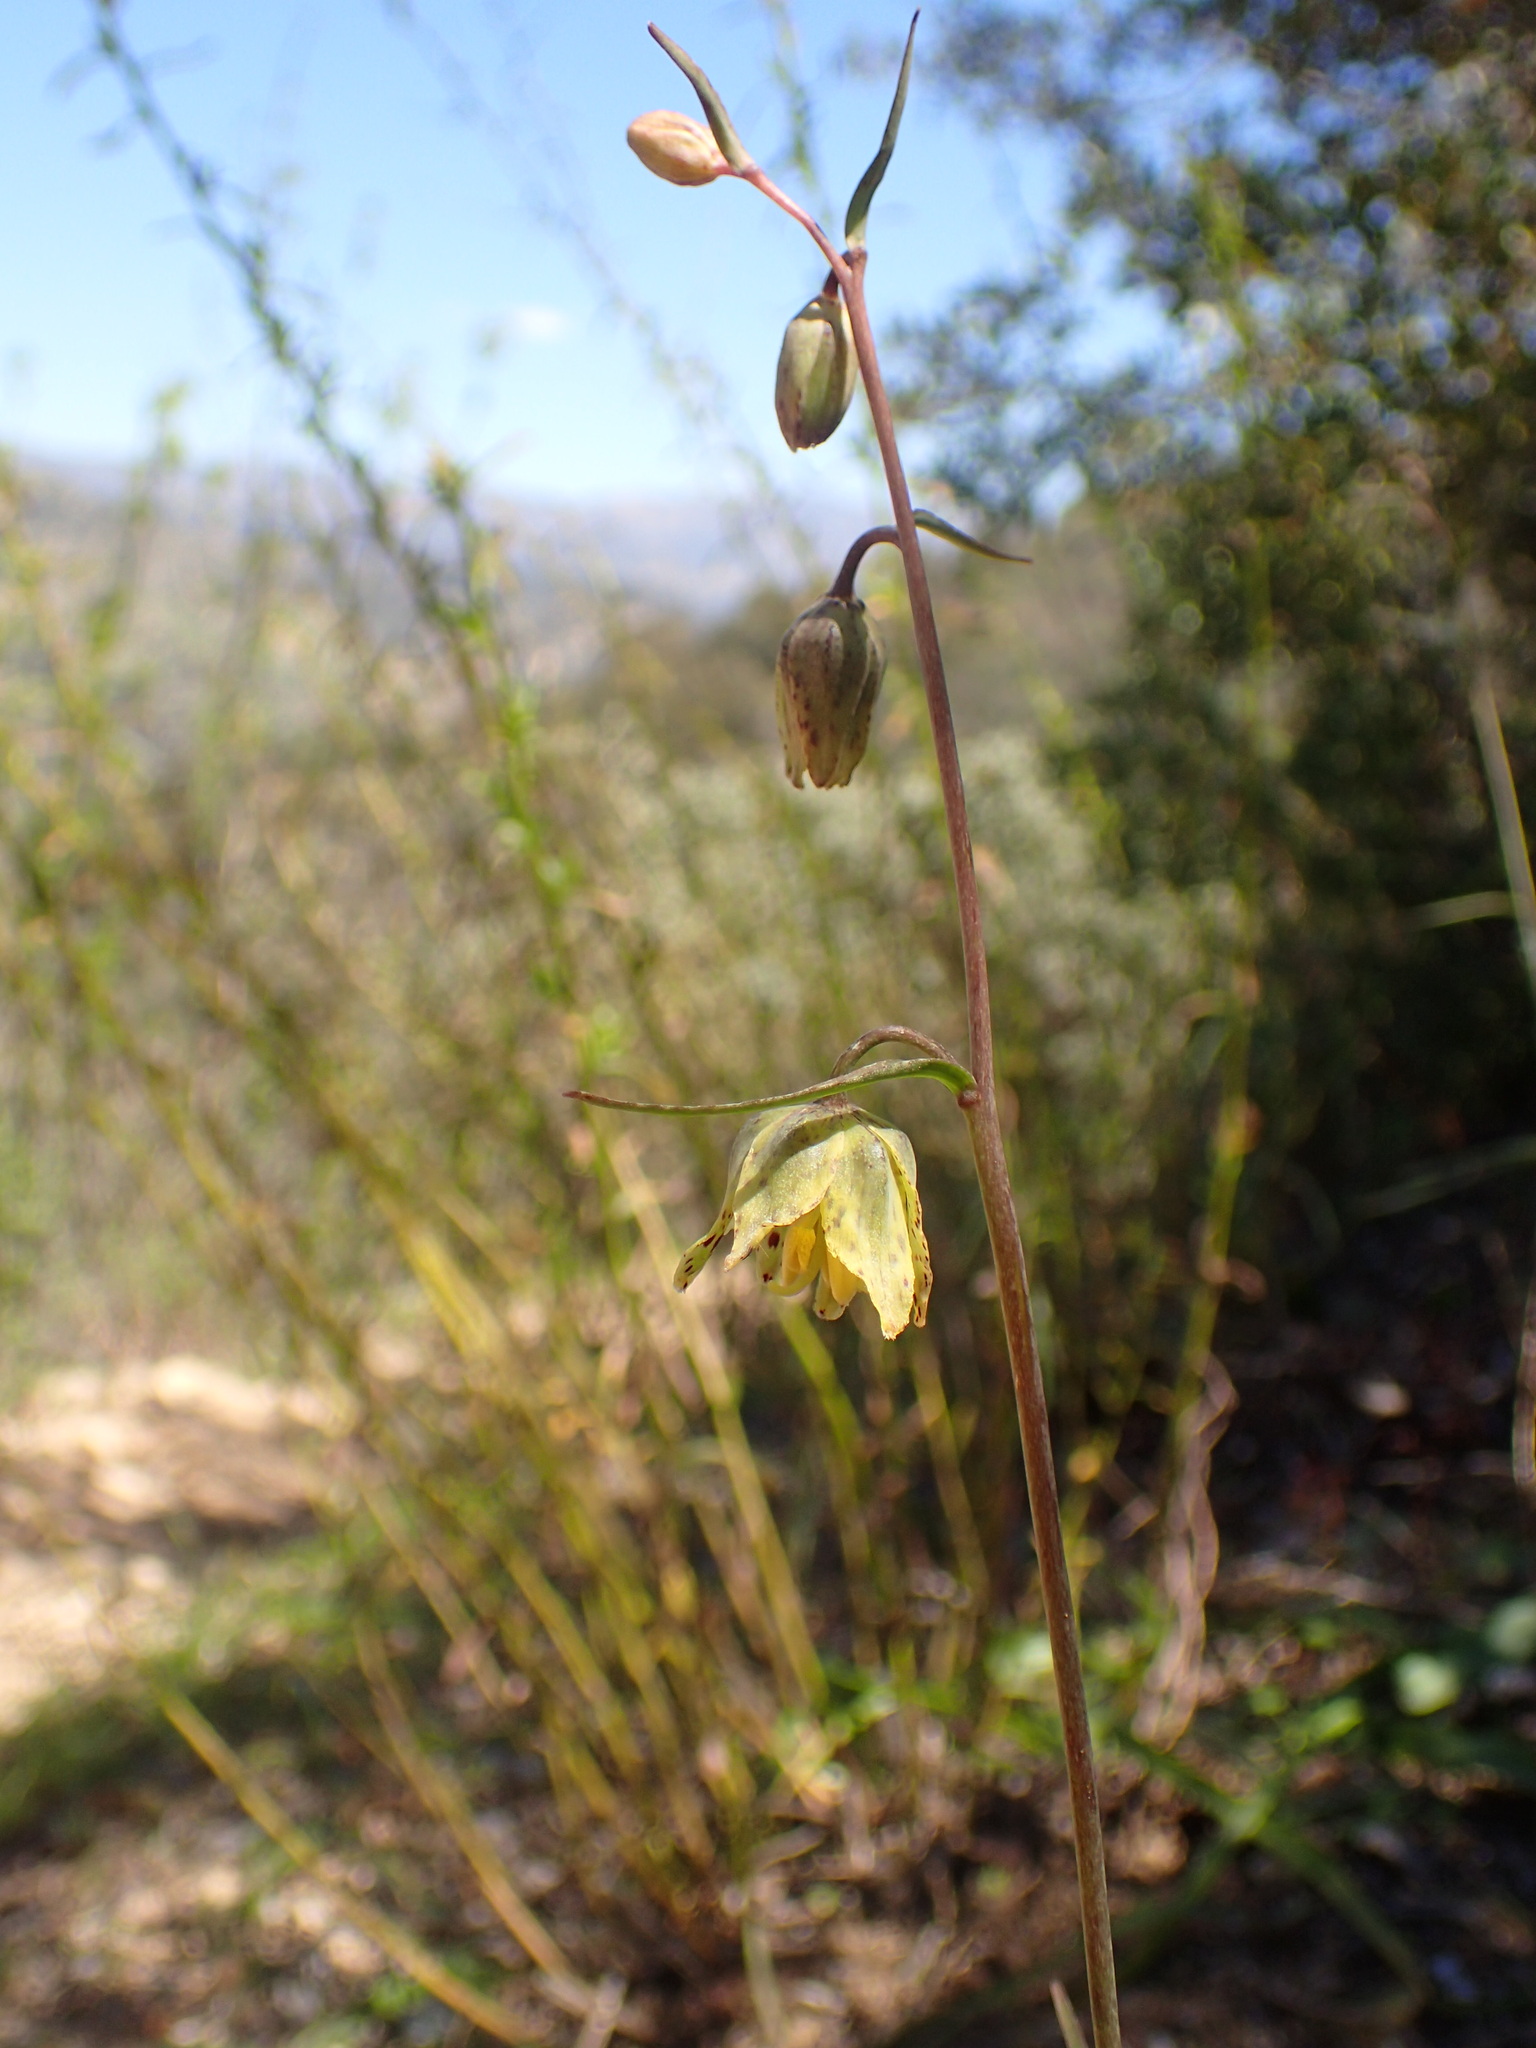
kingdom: Plantae
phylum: Tracheophyta
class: Liliopsida
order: Liliales
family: Liliaceae
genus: Fritillaria
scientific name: Fritillaria ojaiensis
